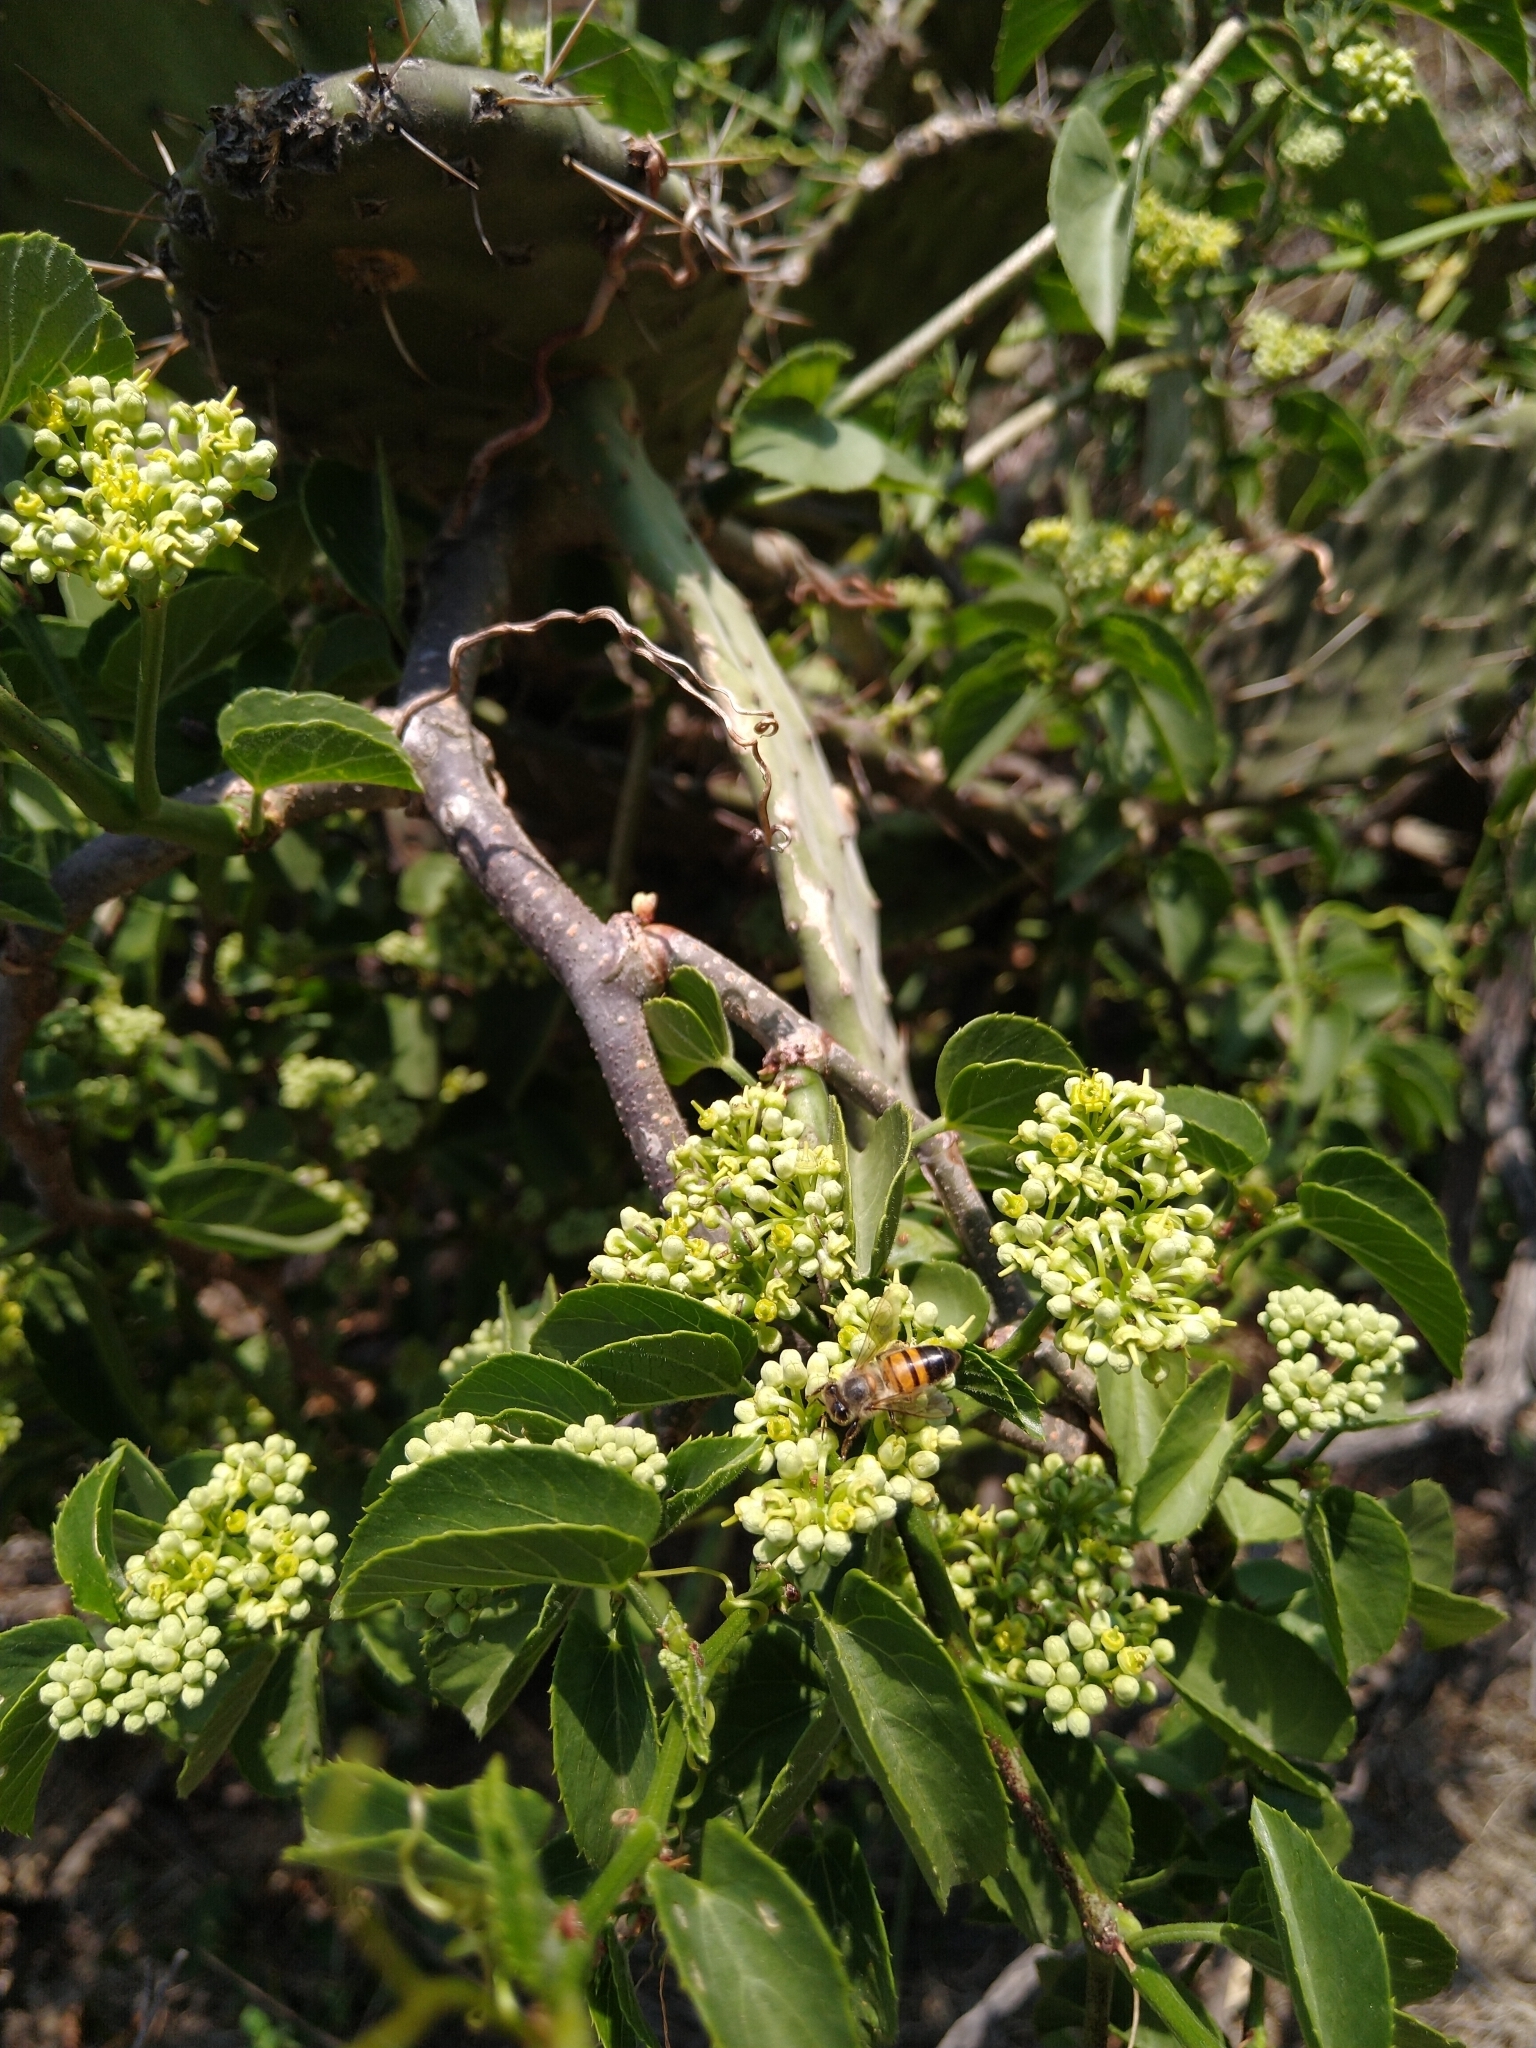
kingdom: Animalia
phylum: Arthropoda
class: Insecta
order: Hymenoptera
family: Apidae
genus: Apis
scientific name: Apis mellifera
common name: Honey bee
